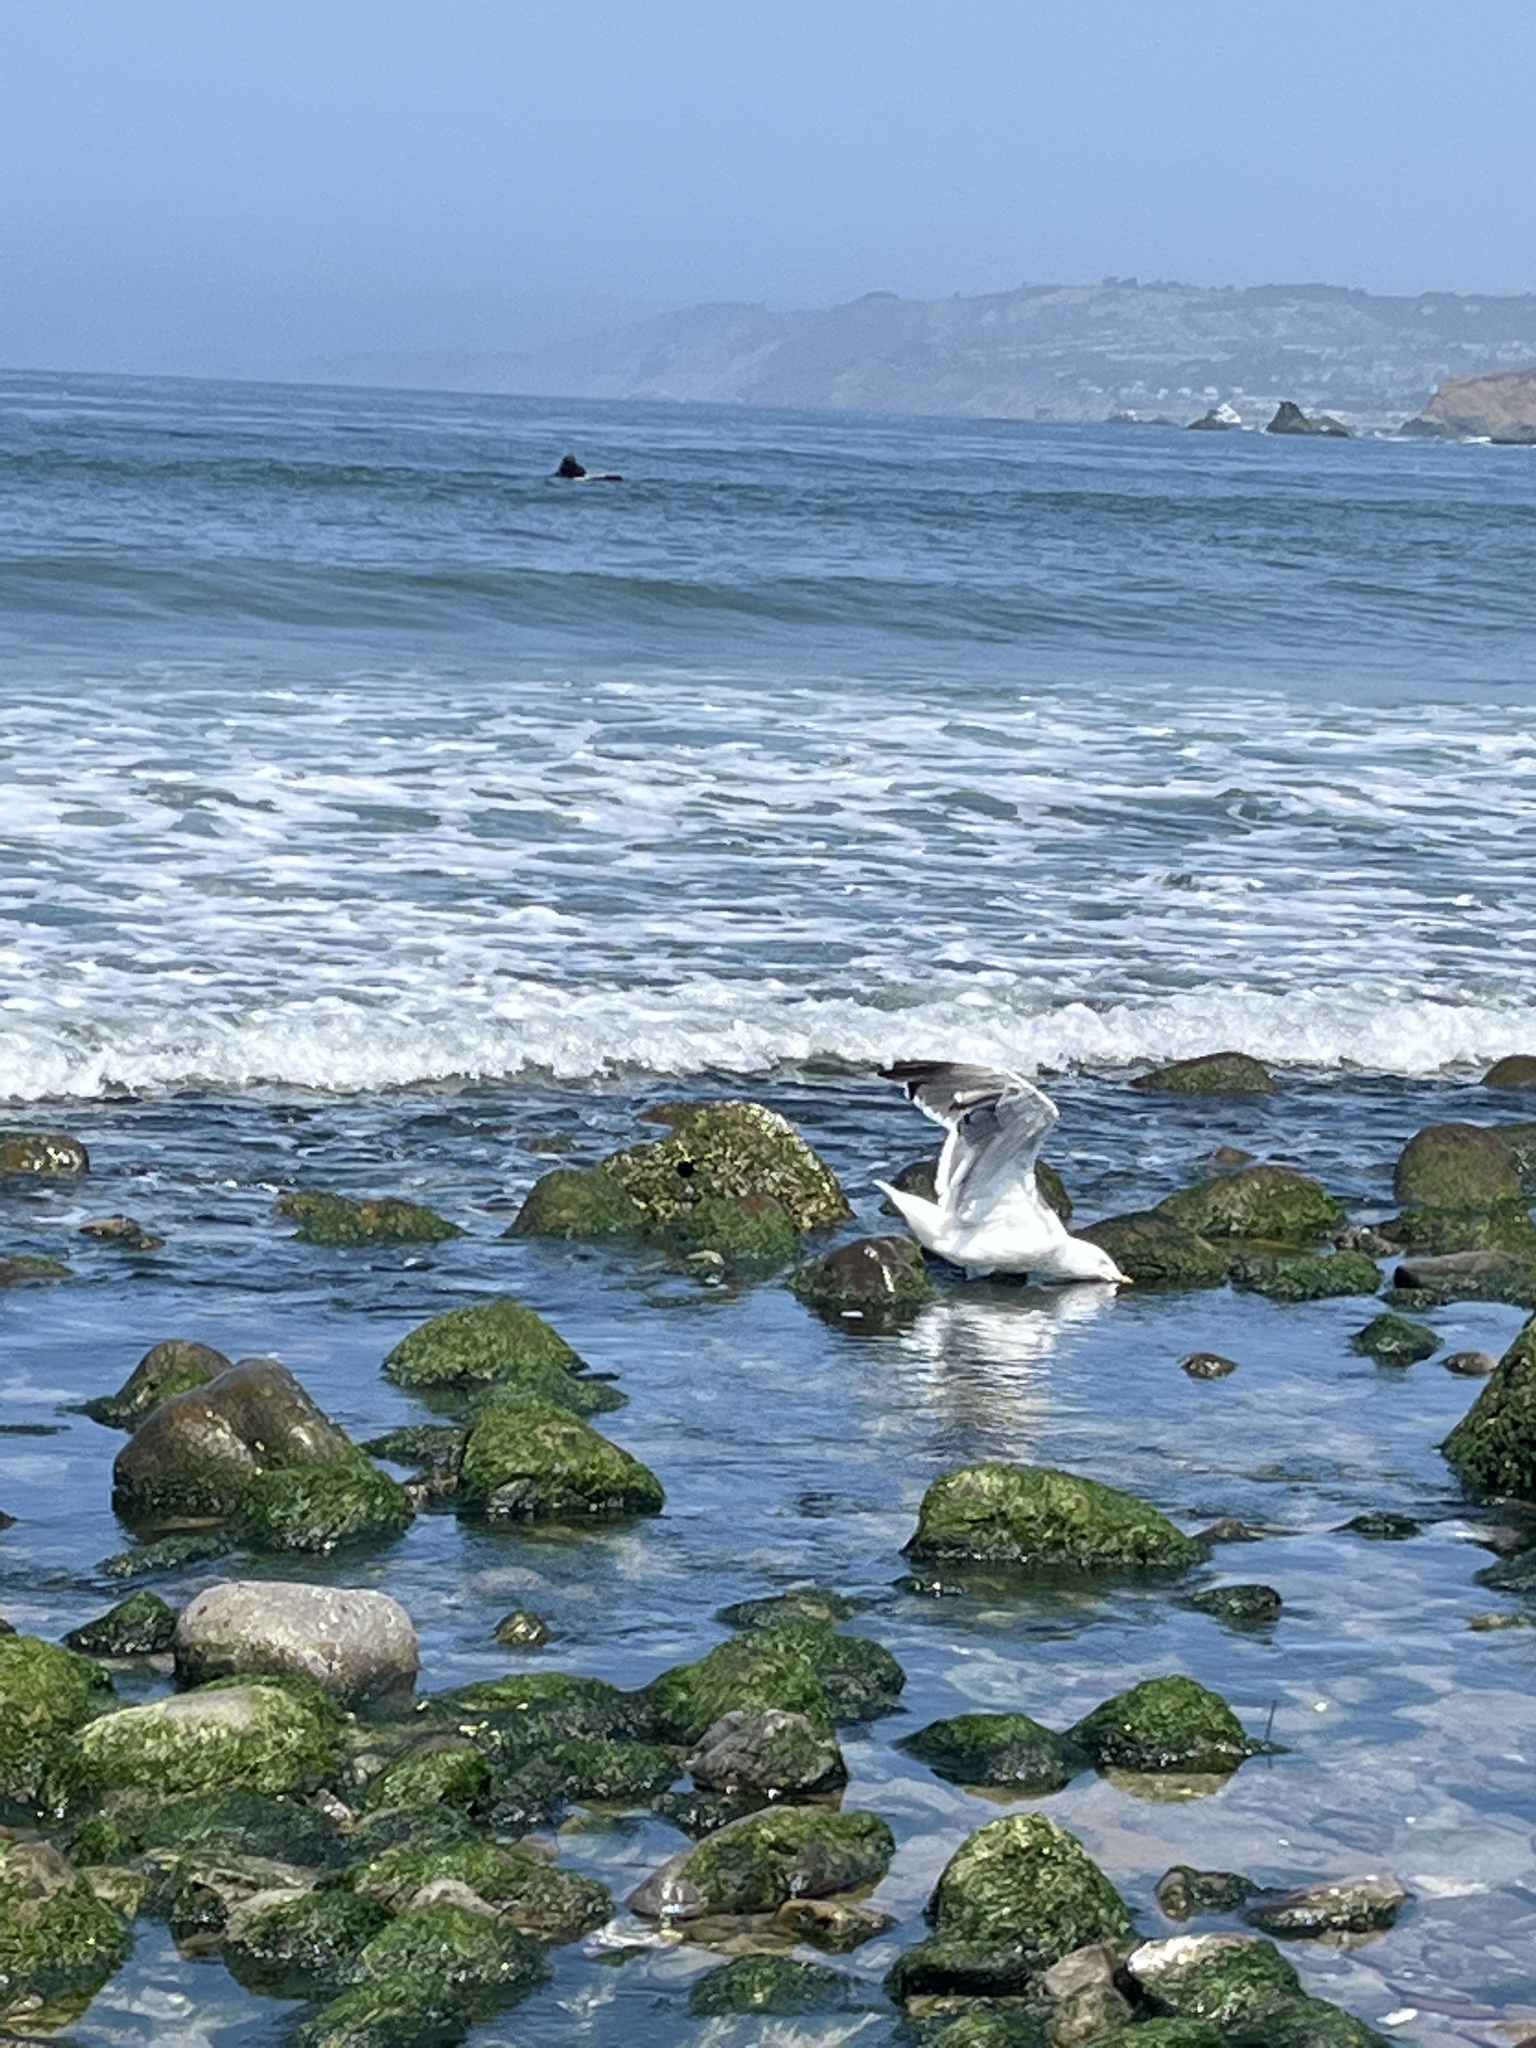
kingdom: Animalia
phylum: Chordata
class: Aves
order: Charadriiformes
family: Laridae
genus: Larus
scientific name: Larus occidentalis
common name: Western gull
